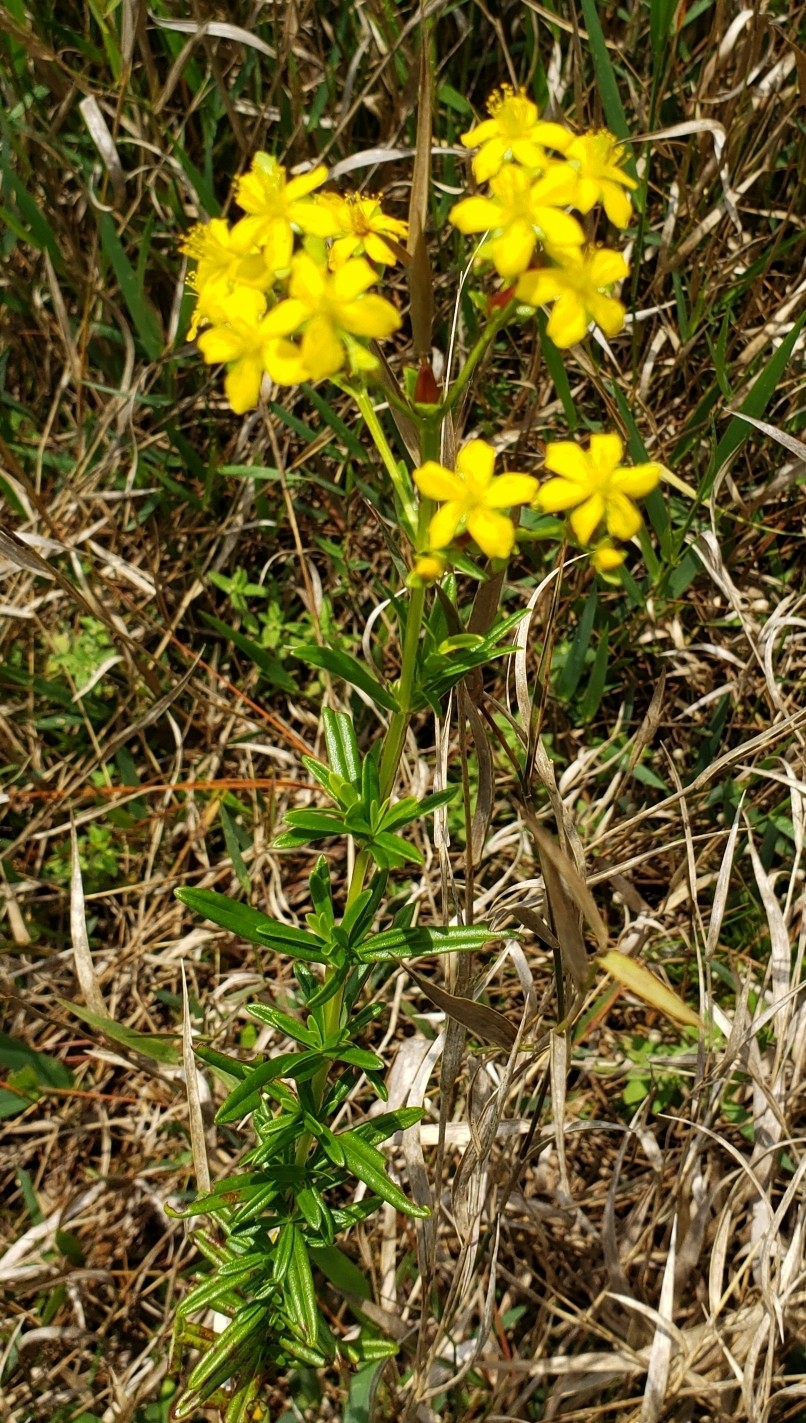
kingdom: Plantae
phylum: Tracheophyta
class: Magnoliopsida
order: Malpighiales
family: Hypericaceae
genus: Hypericum
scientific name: Hypericum cistifolium
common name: Round-pod st. john's-wort
